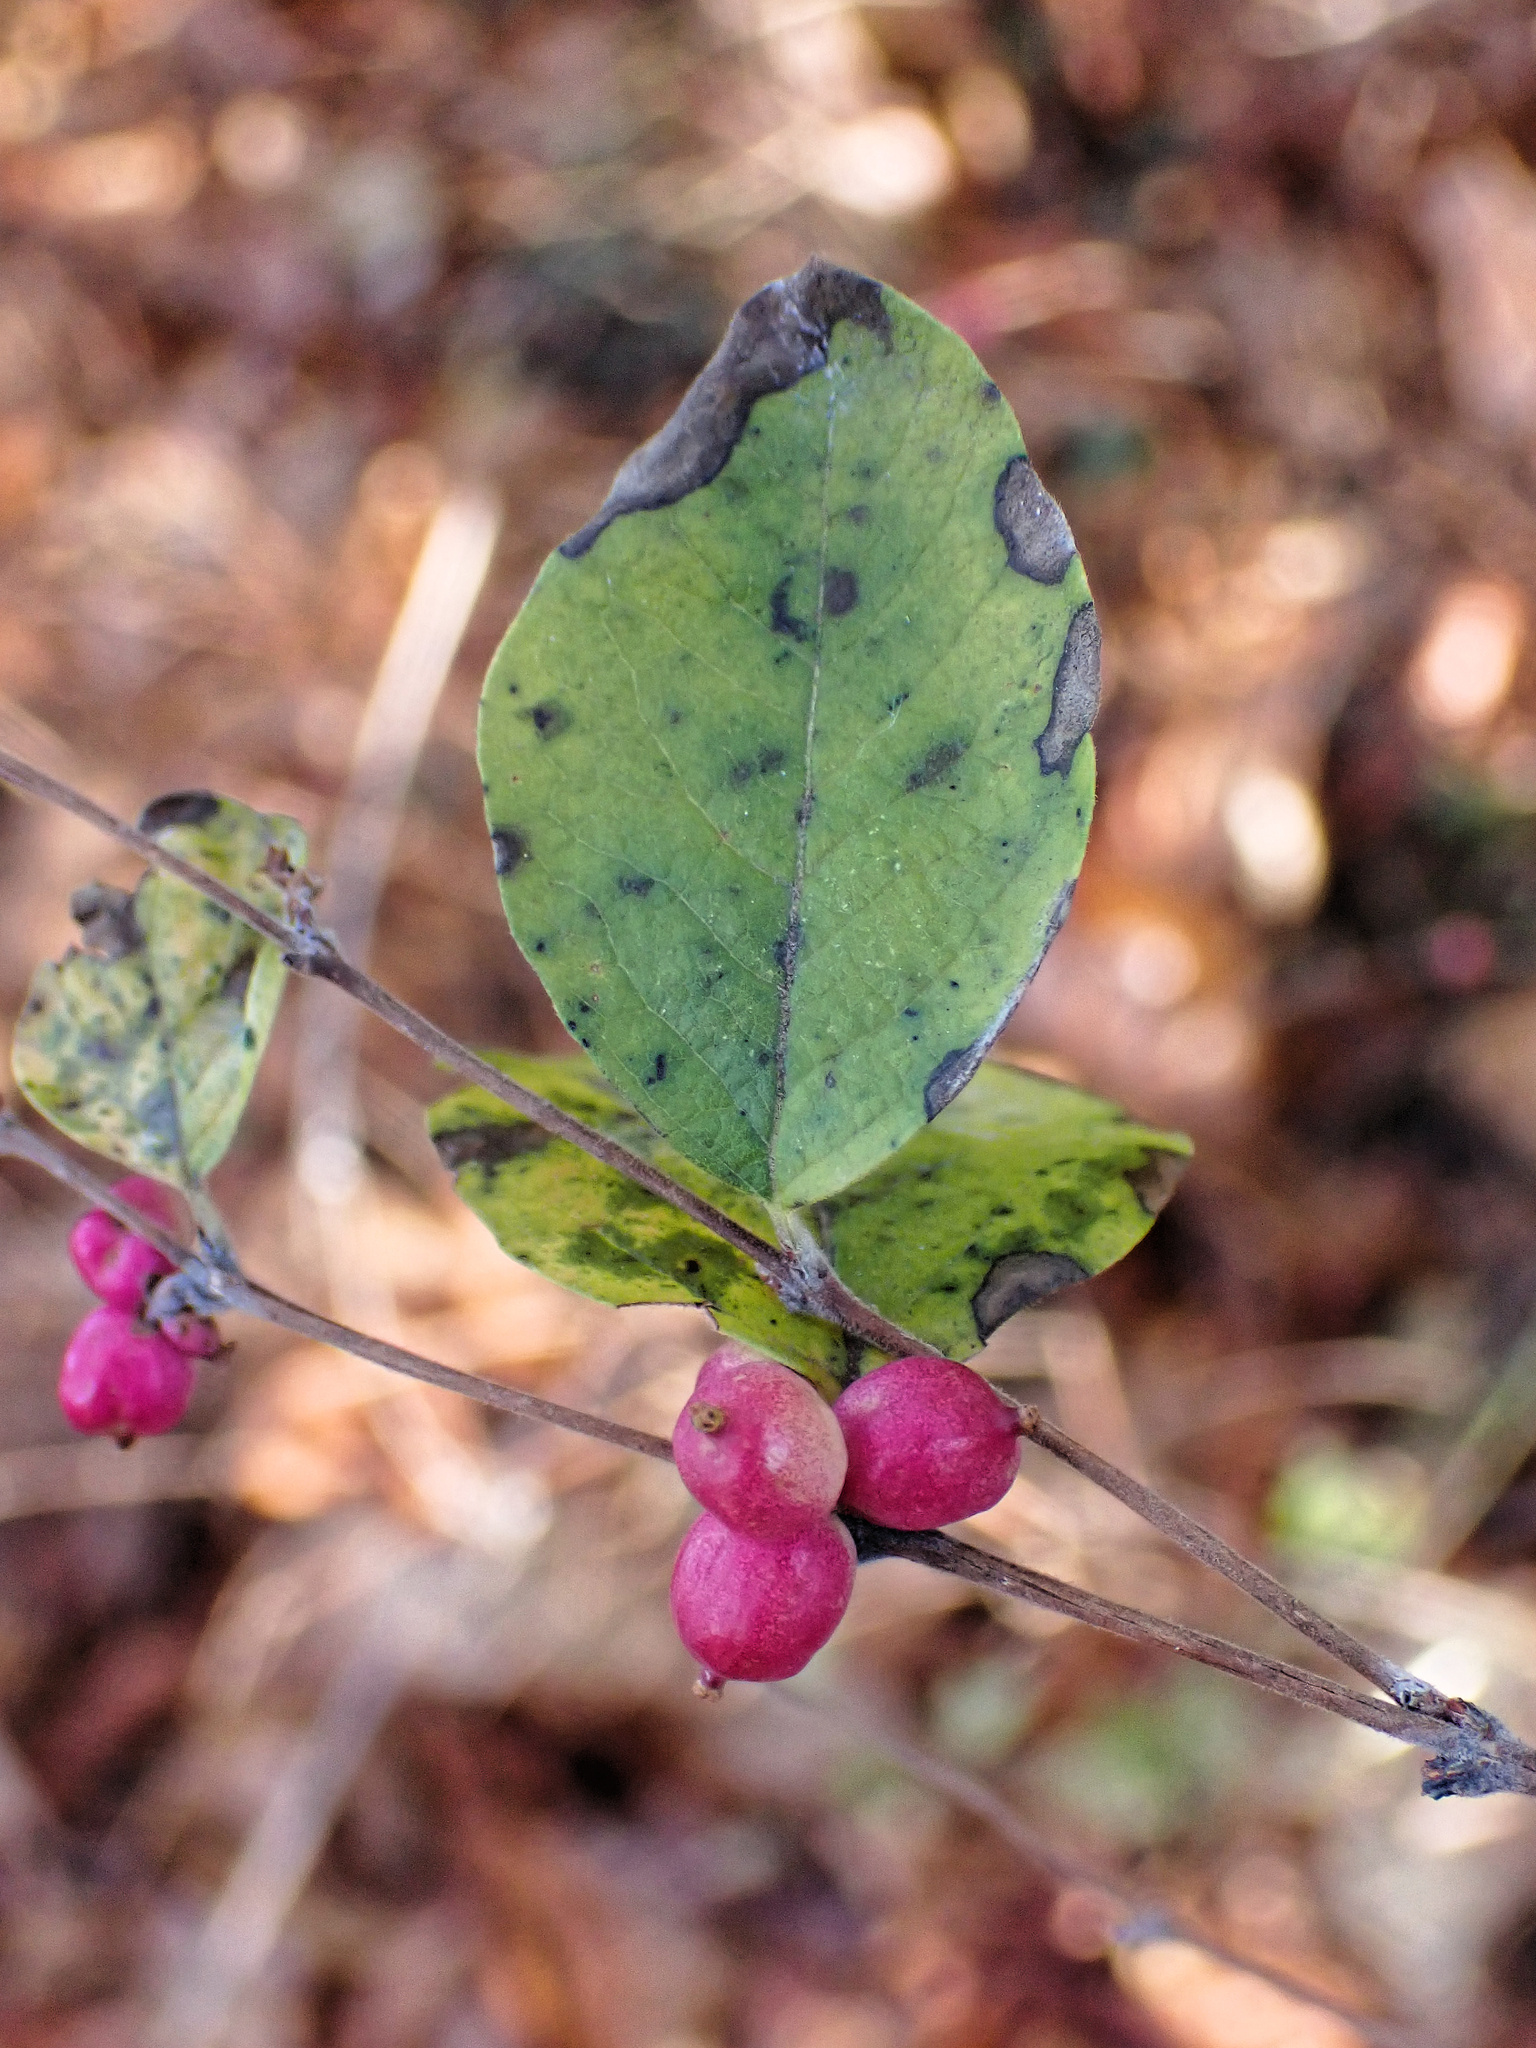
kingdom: Plantae
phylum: Tracheophyta
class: Magnoliopsida
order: Dipsacales
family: Caprifoliaceae
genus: Symphoricarpos
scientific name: Symphoricarpos orbiculatus
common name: Coralberry
